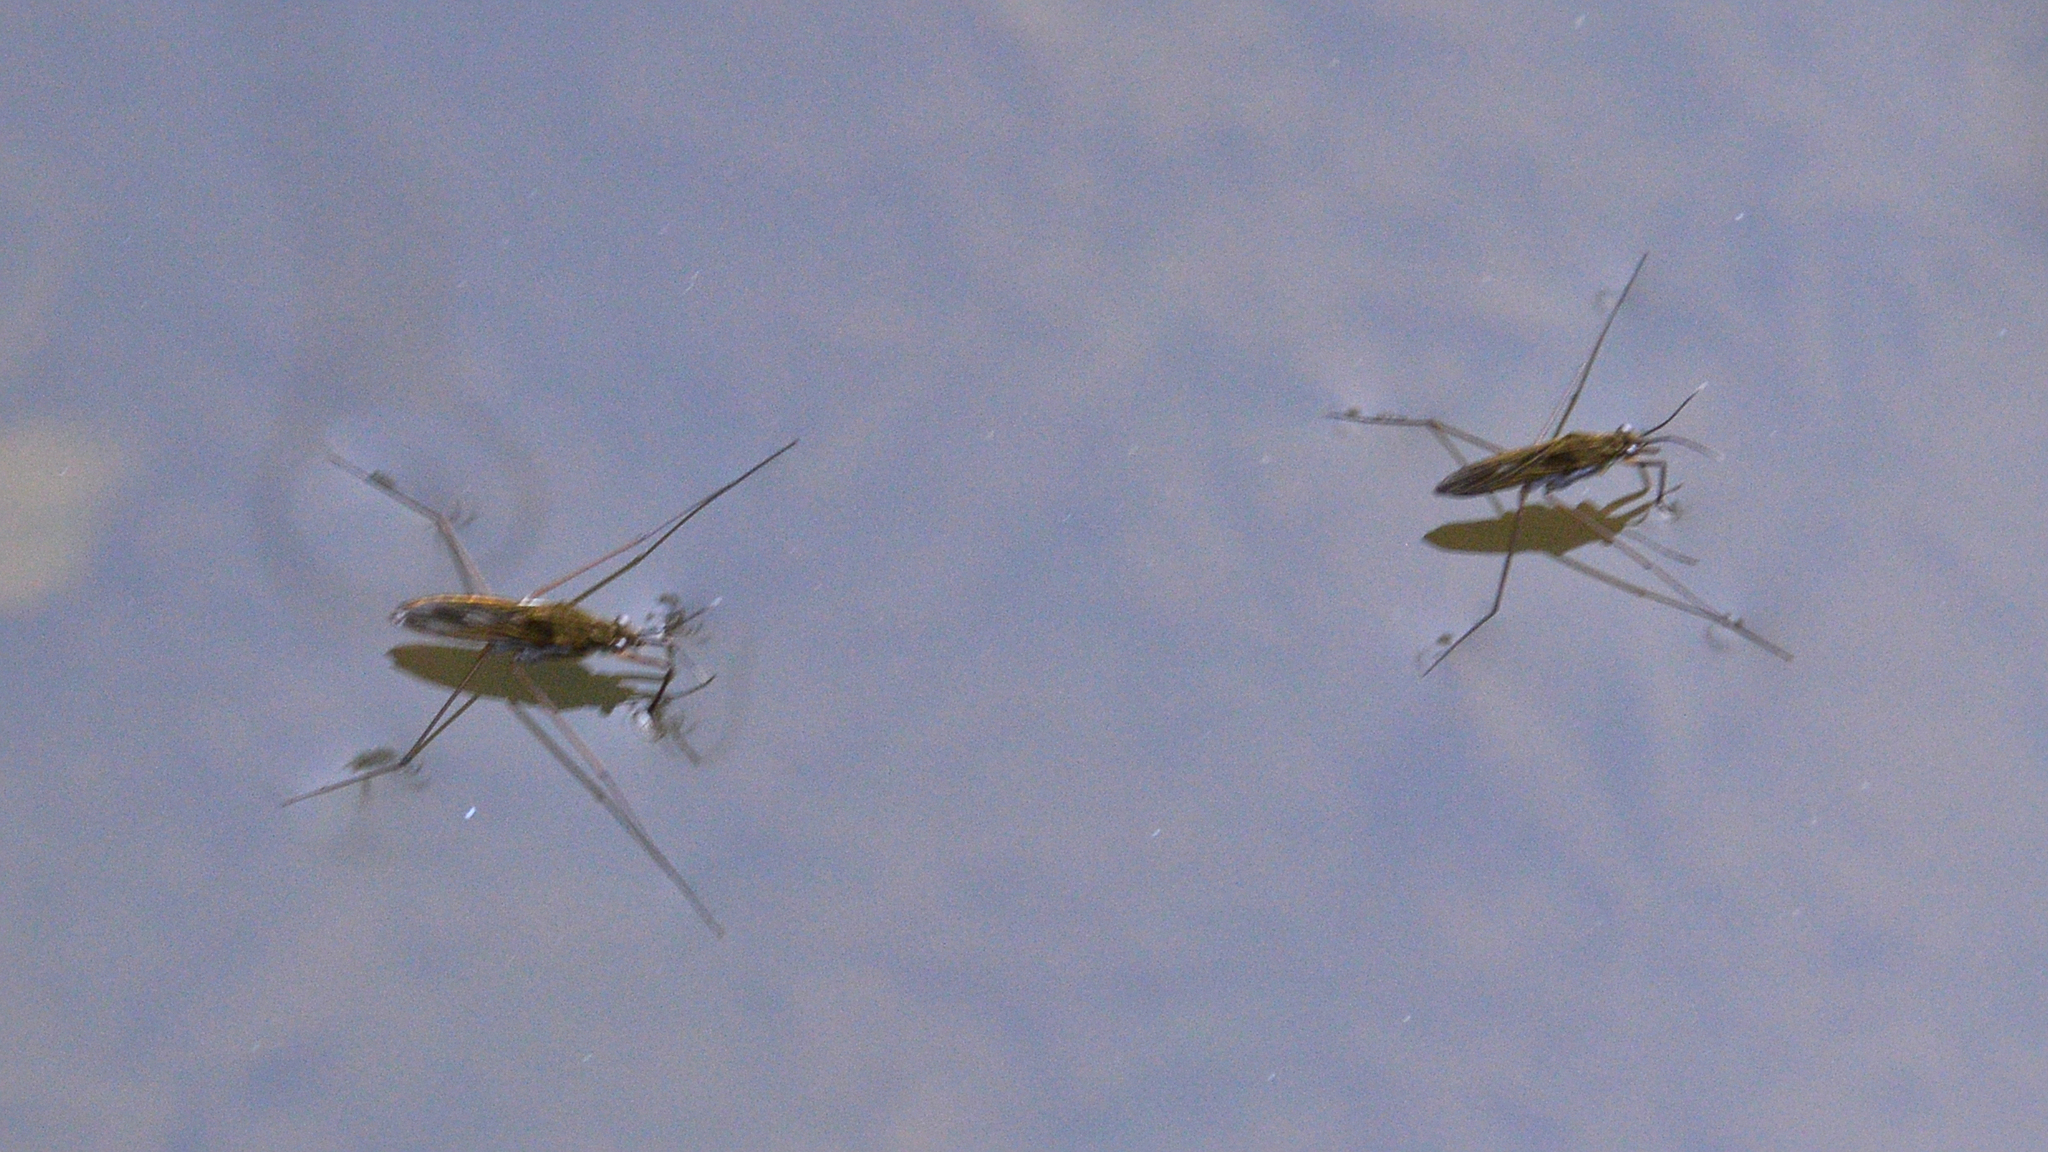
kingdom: Animalia
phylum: Arthropoda
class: Insecta
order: Hemiptera
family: Gerridae
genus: Gerris
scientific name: Gerris
